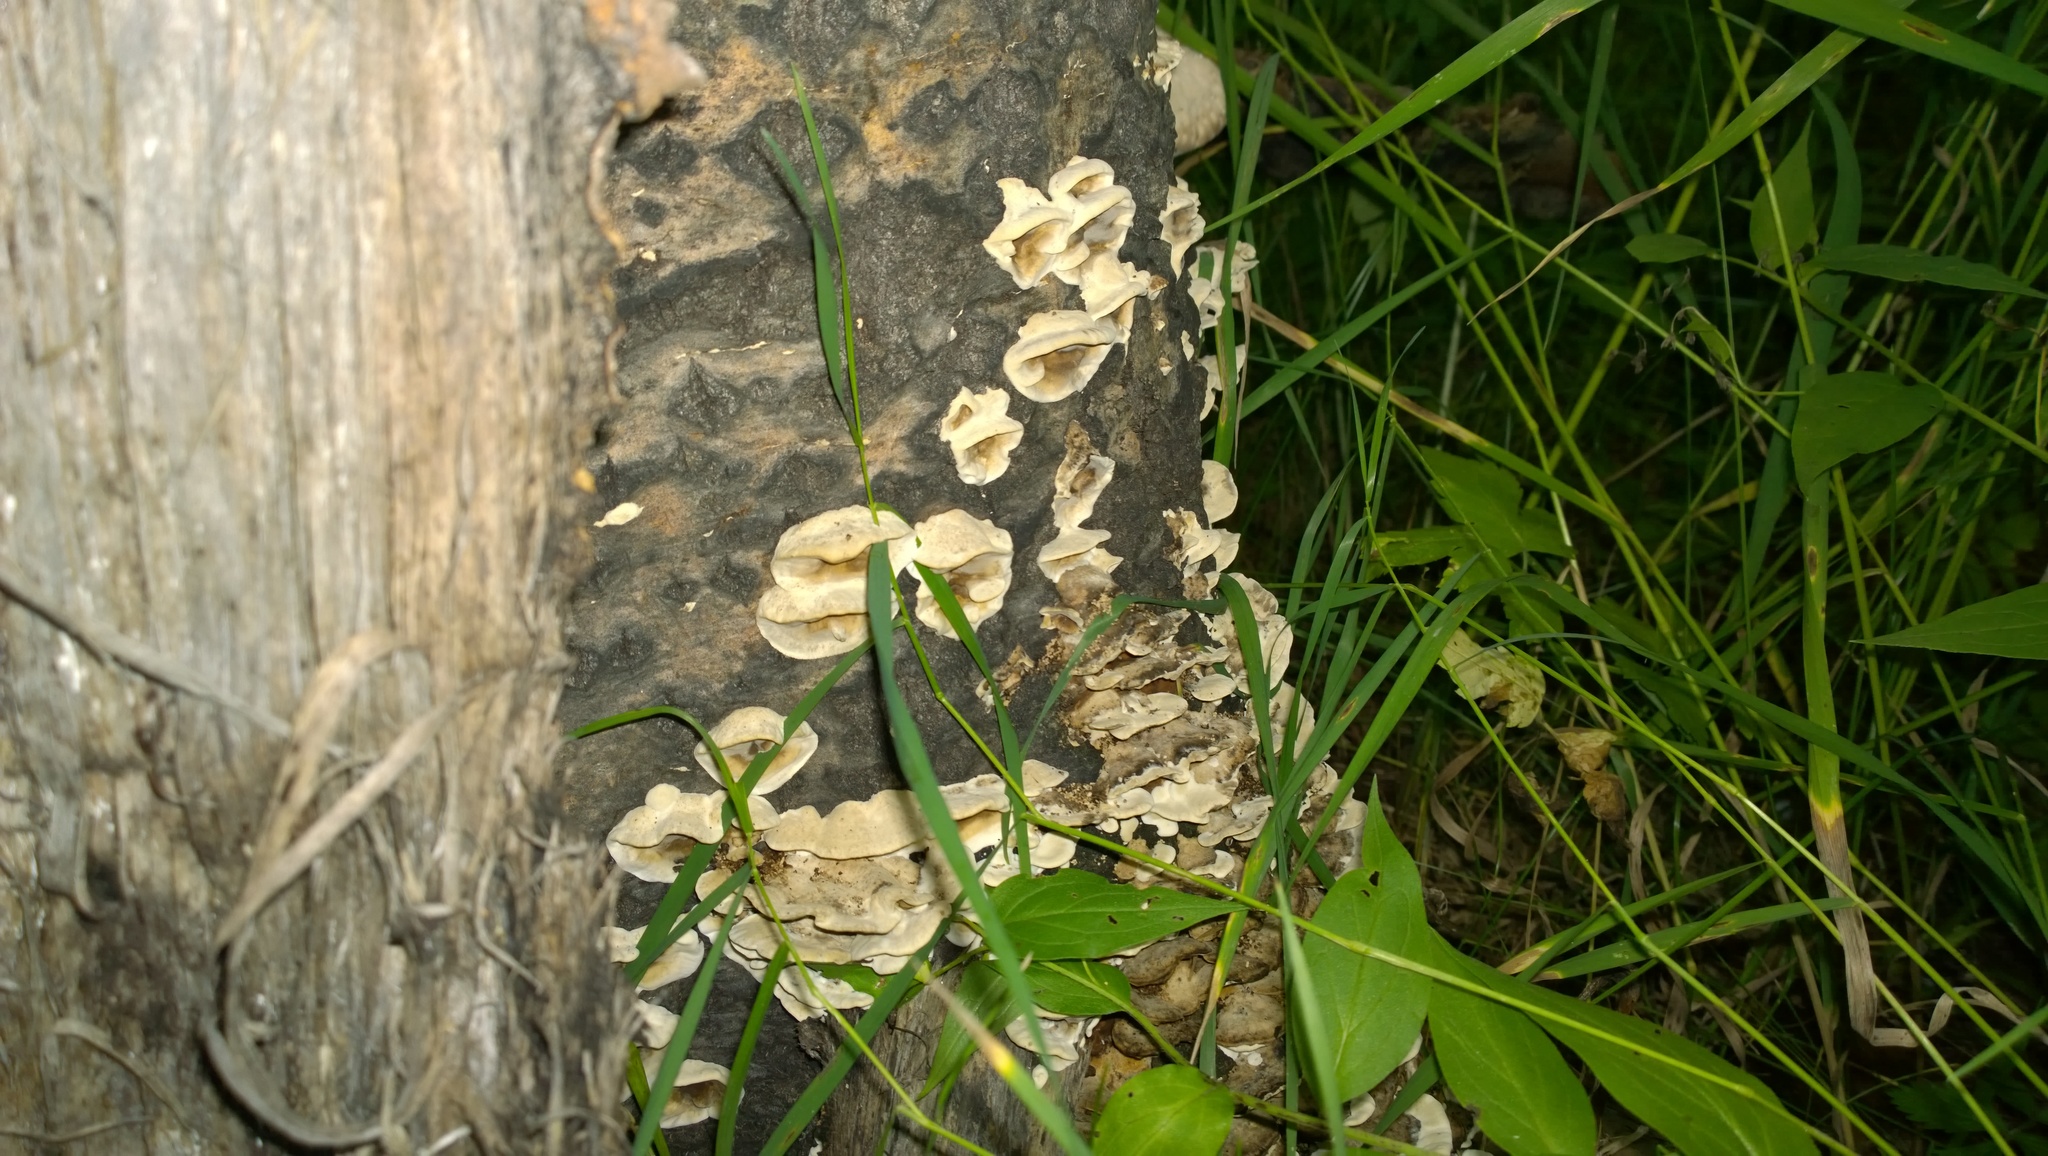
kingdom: Fungi
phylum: Basidiomycota
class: Agaricomycetes
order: Polyporales
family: Phanerochaetaceae
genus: Bjerkandera
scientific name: Bjerkandera adusta
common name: Smoky bracket
